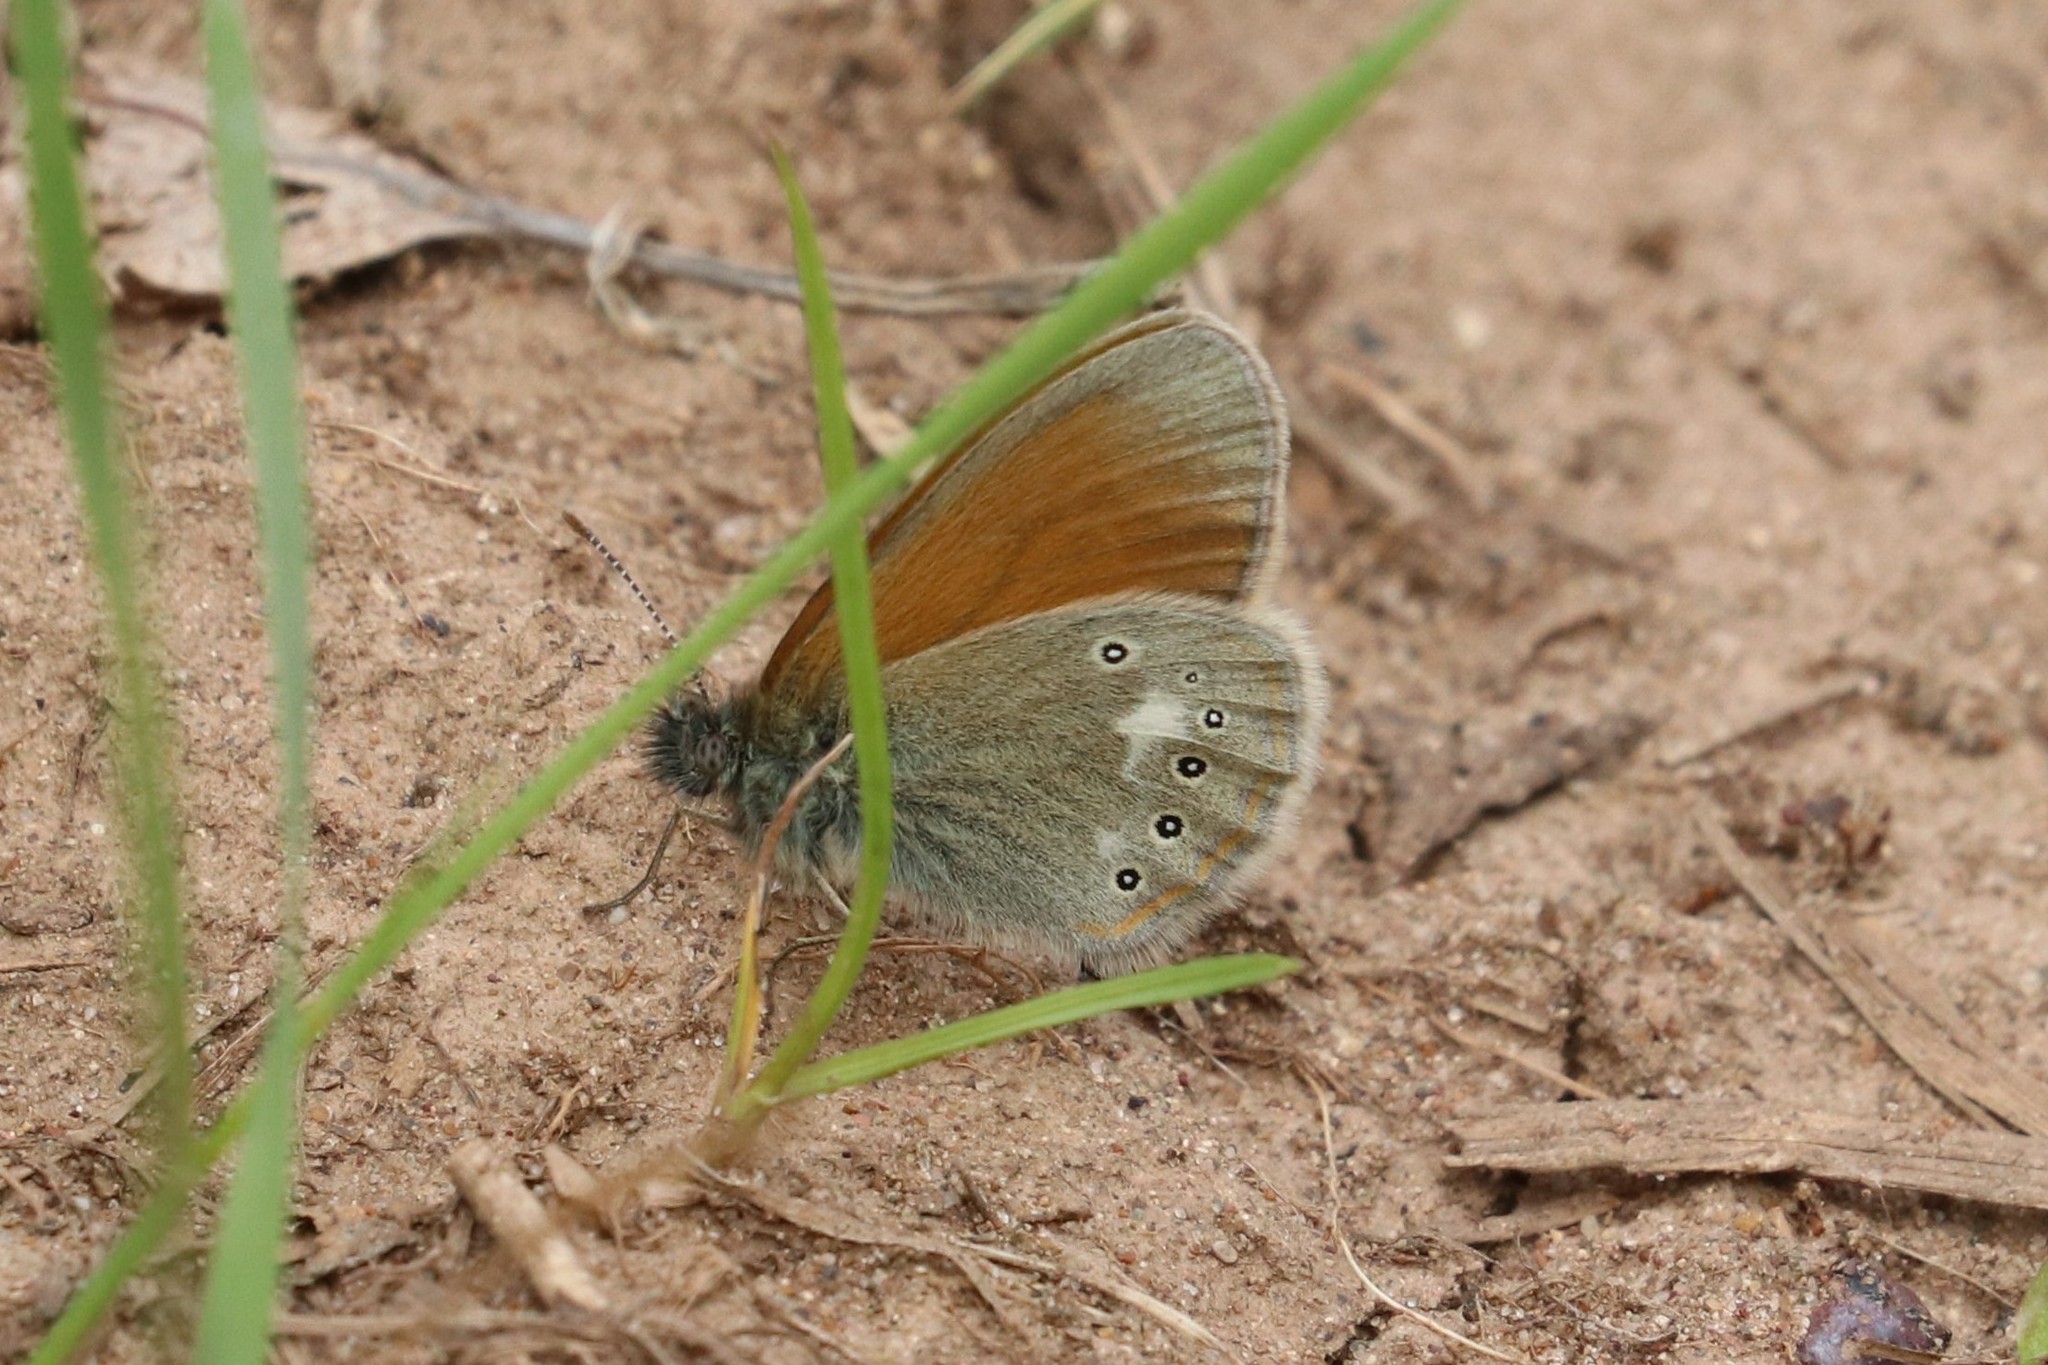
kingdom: Animalia
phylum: Arthropoda
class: Insecta
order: Lepidoptera
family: Nymphalidae
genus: Coenonympha
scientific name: Coenonympha iphis
